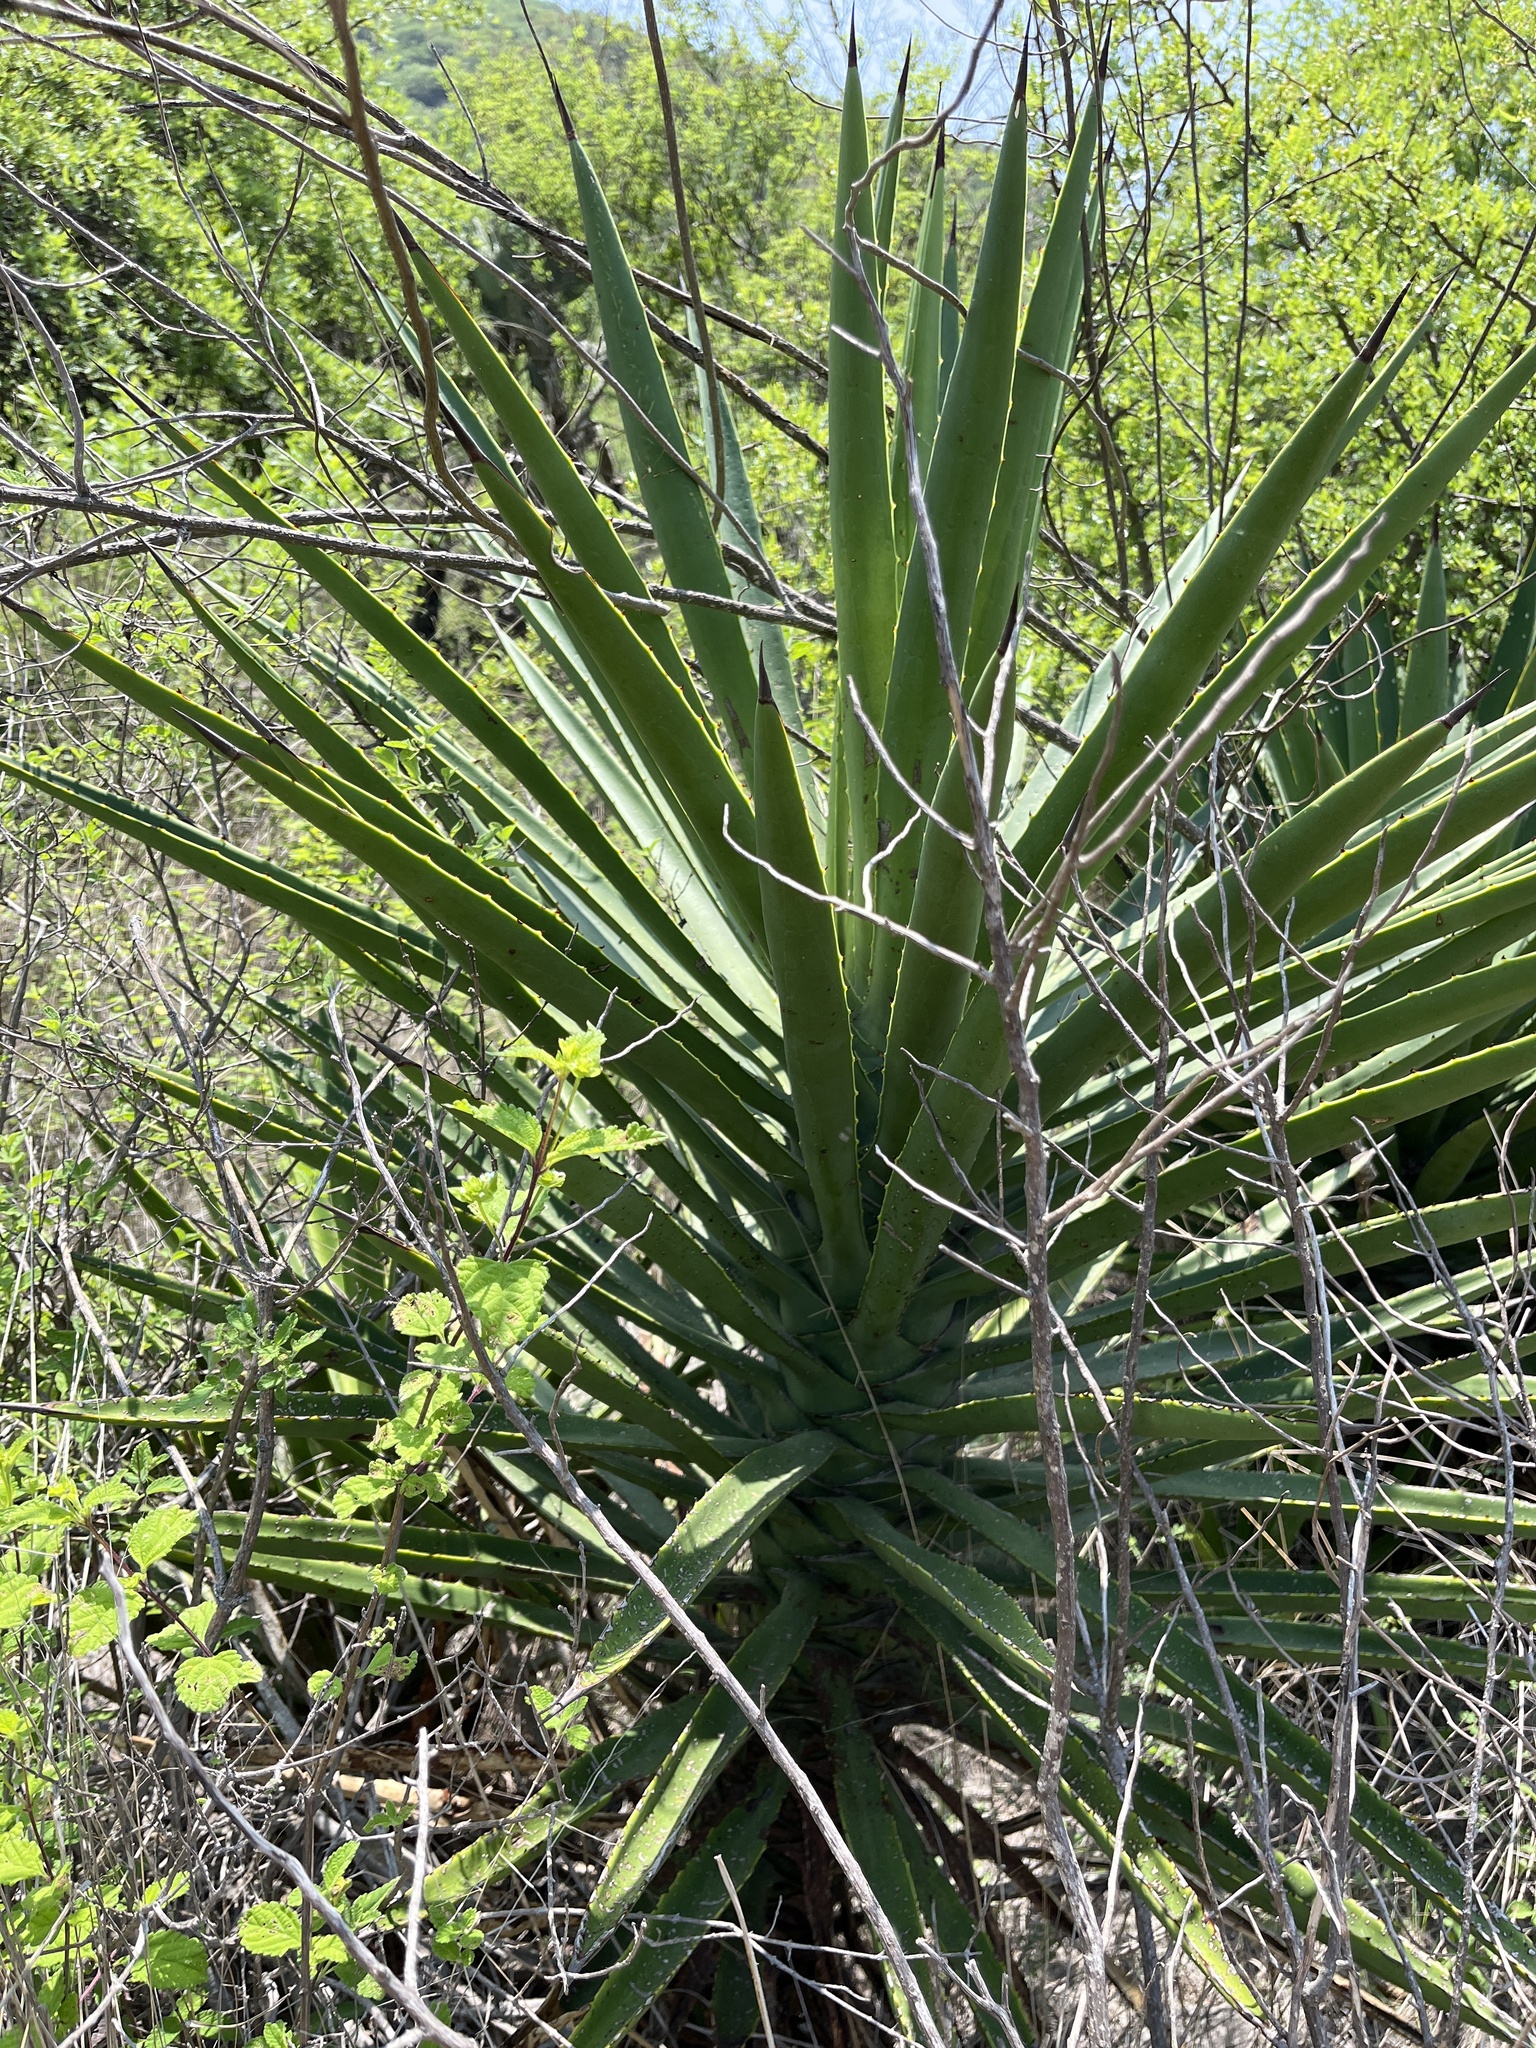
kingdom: Plantae
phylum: Tracheophyta
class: Liliopsida
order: Asparagales
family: Asparagaceae
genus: Agave
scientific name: Agave karwinskii
